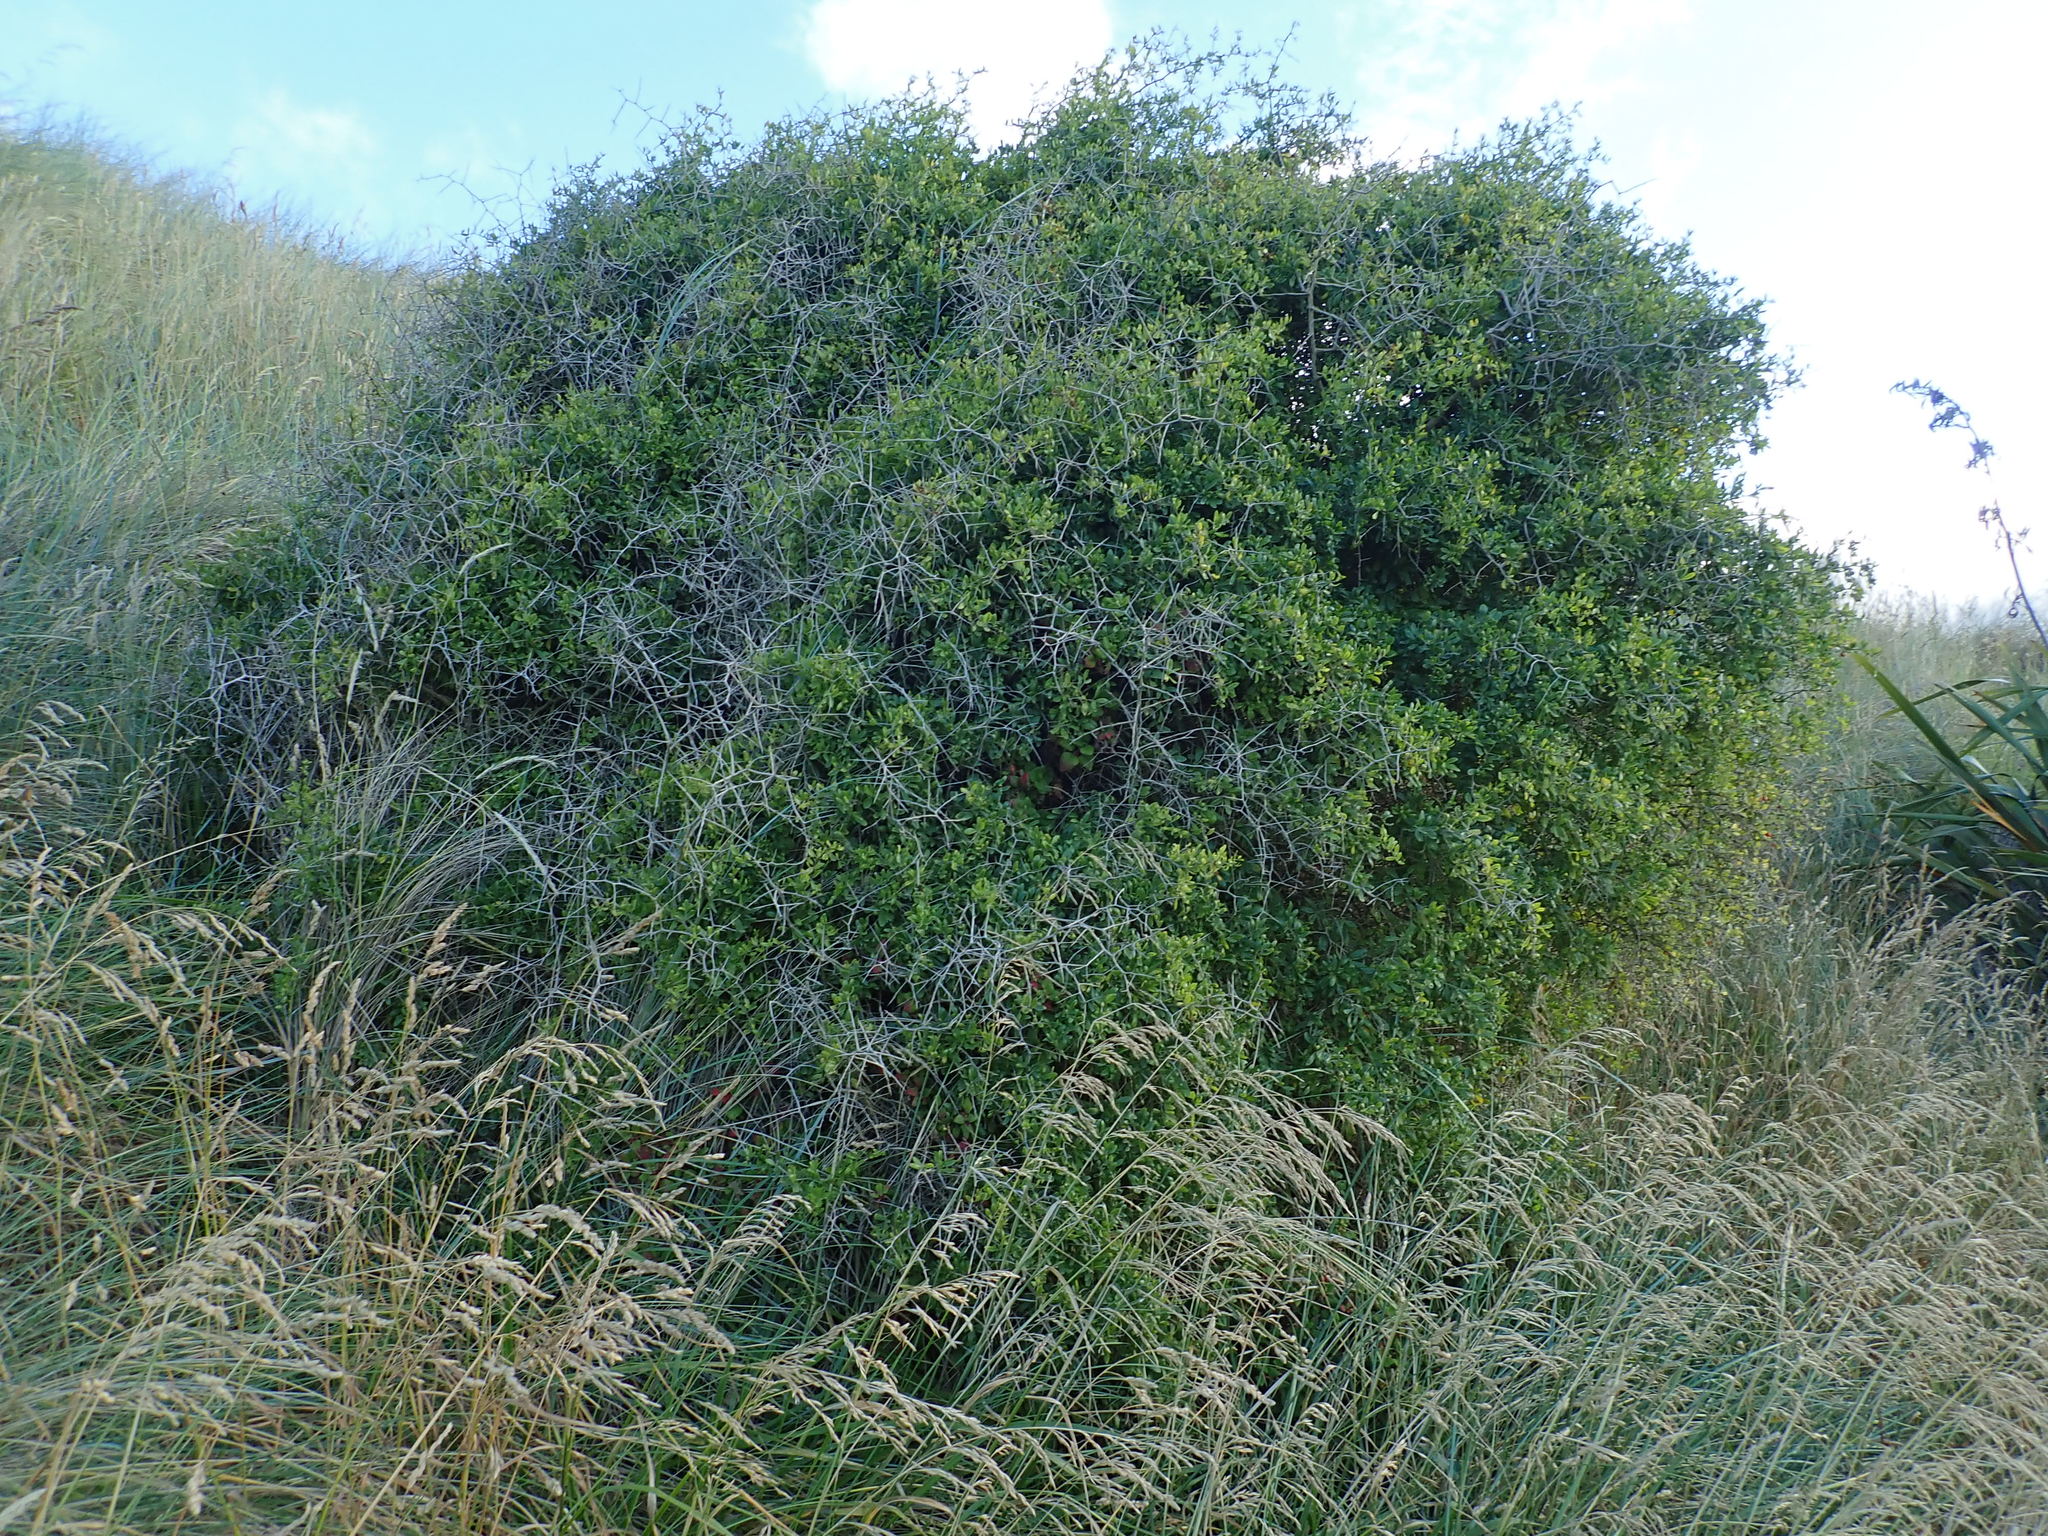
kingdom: Plantae
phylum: Tracheophyta
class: Magnoliopsida
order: Caryophyllales
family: Aizoaceae
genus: Tetragonia
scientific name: Tetragonia implexicoma
